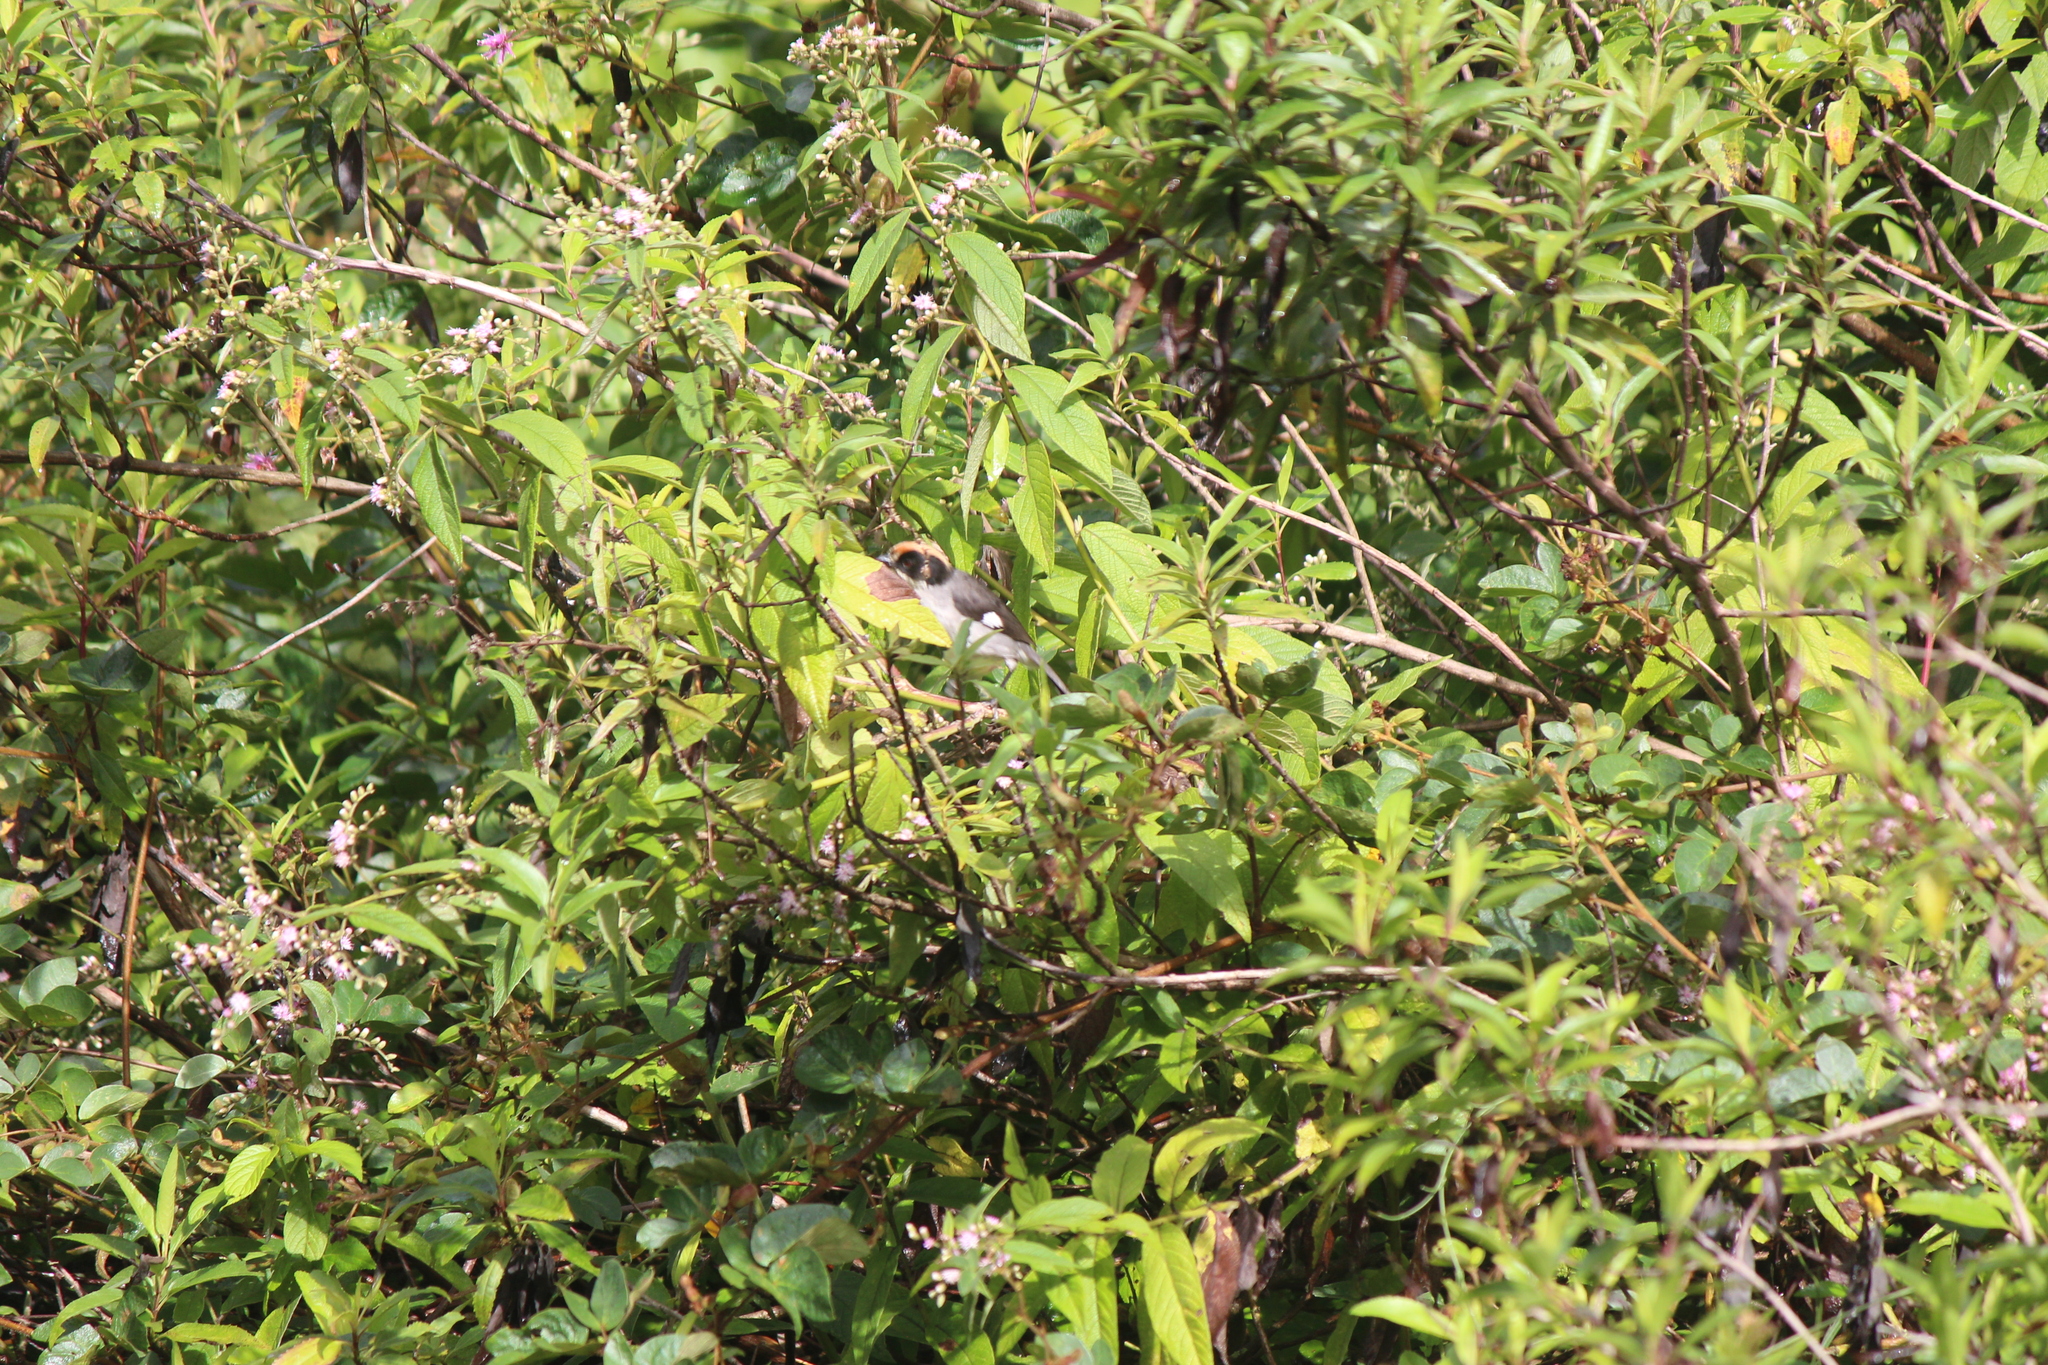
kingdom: Animalia
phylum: Chordata
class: Aves
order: Passeriformes
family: Passerellidae
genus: Atlapetes
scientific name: Atlapetes leucopterus
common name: White-winged brushfinch
